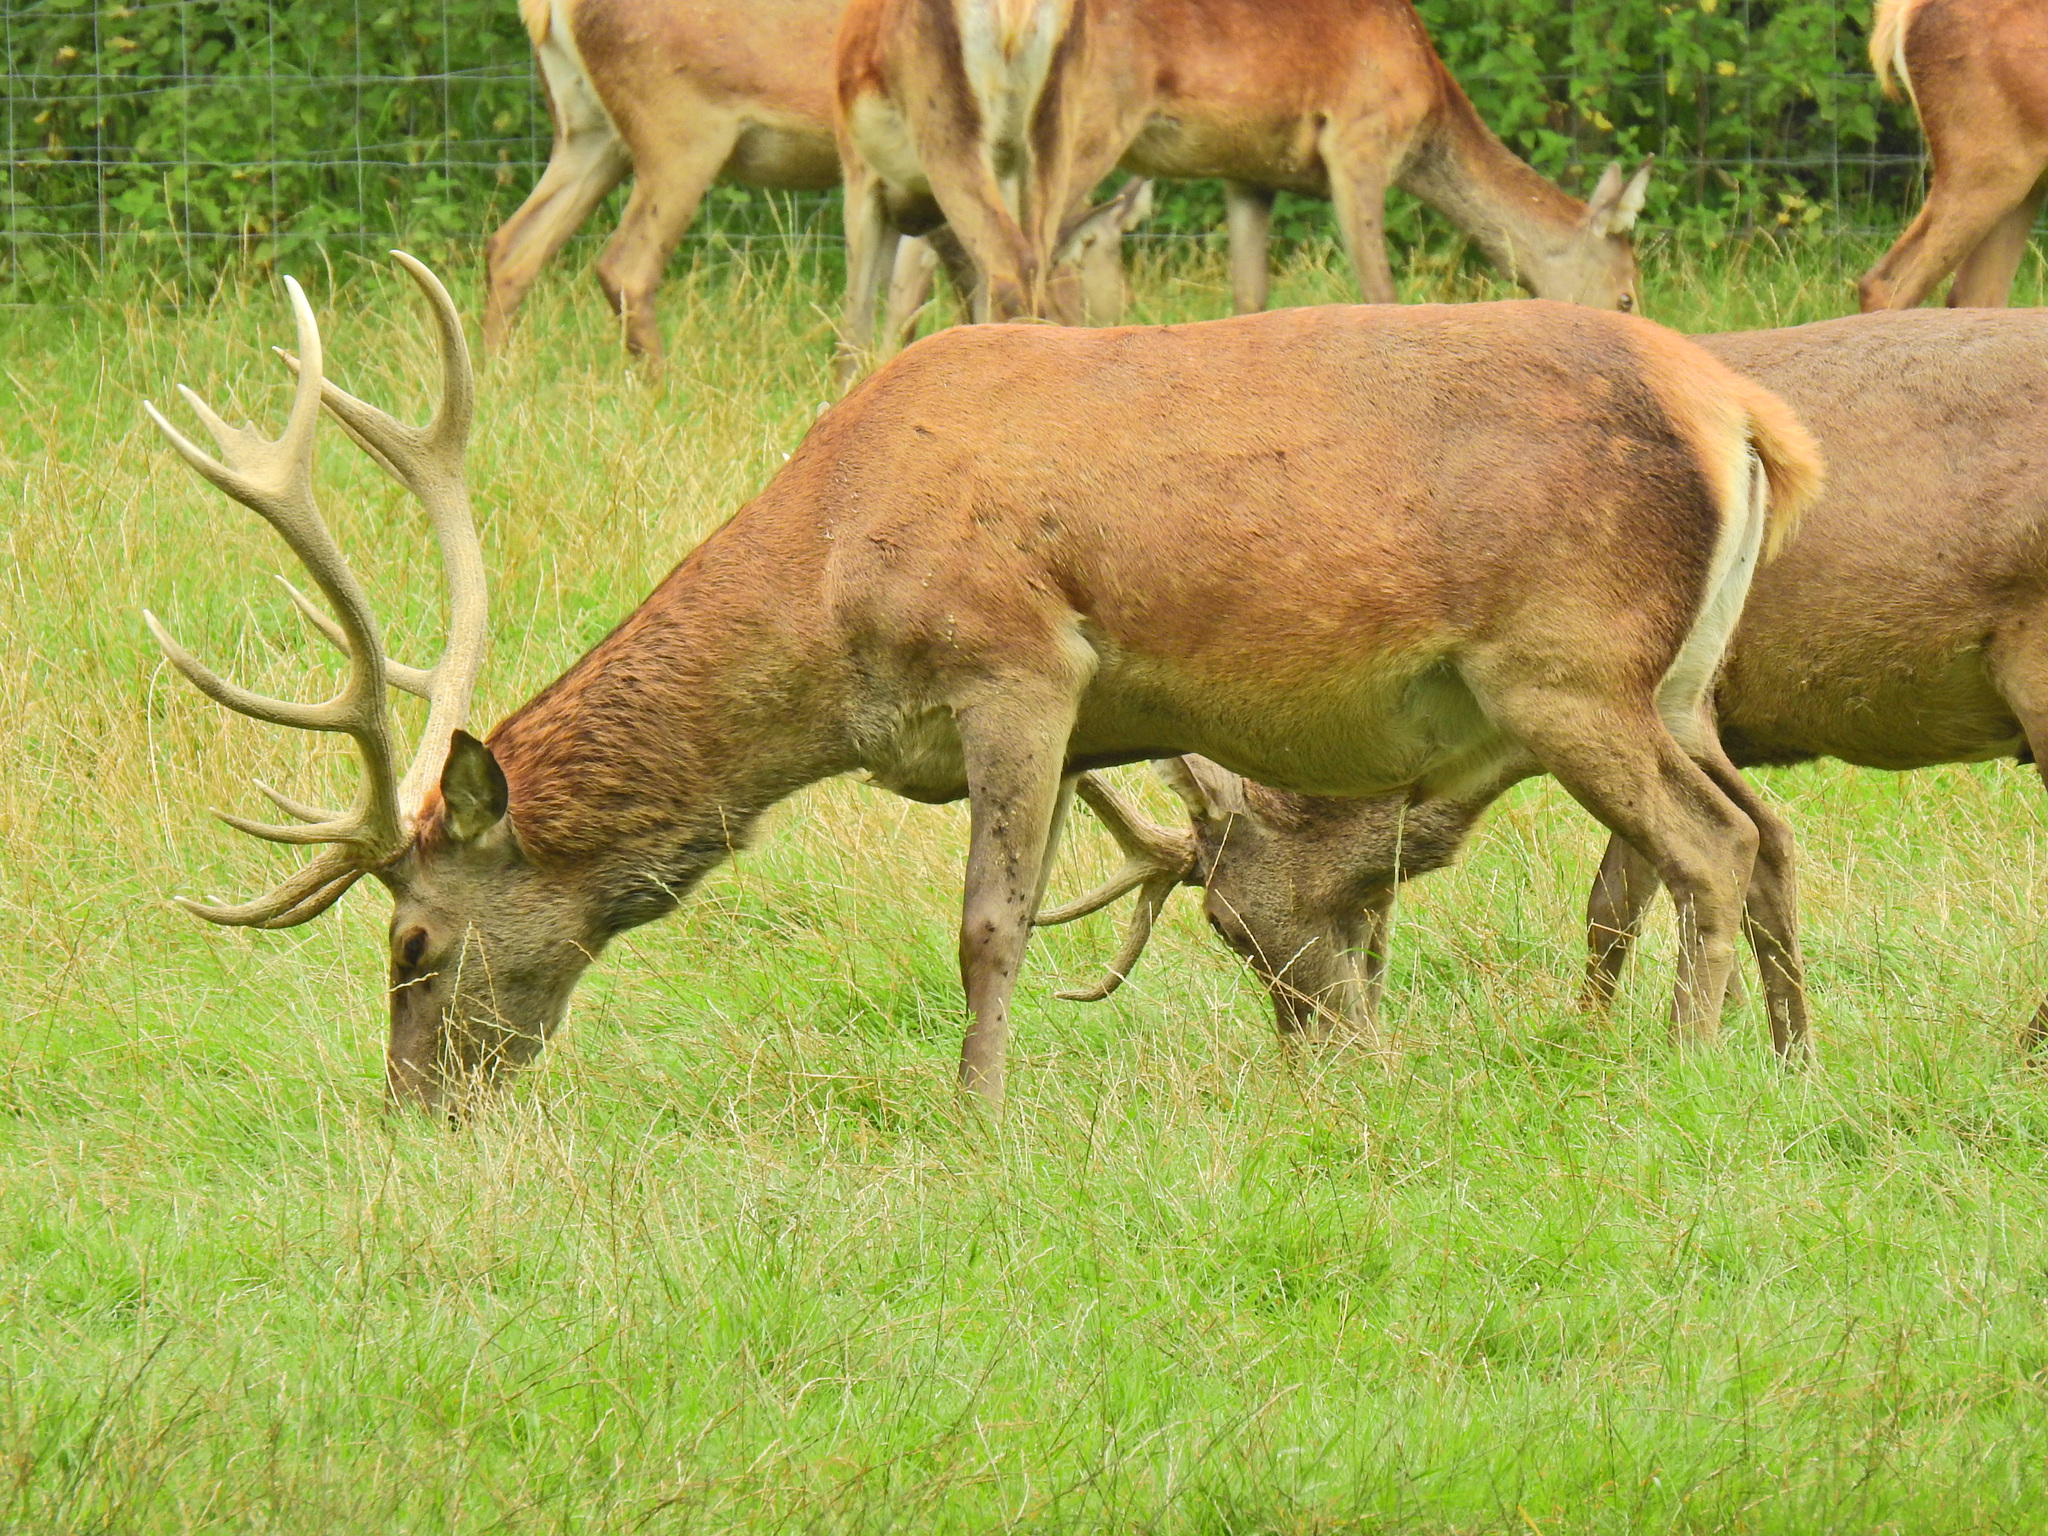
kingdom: Animalia
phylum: Chordata
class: Mammalia
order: Artiodactyla
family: Cervidae
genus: Cervus
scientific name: Cervus elaphus
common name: Red deer
